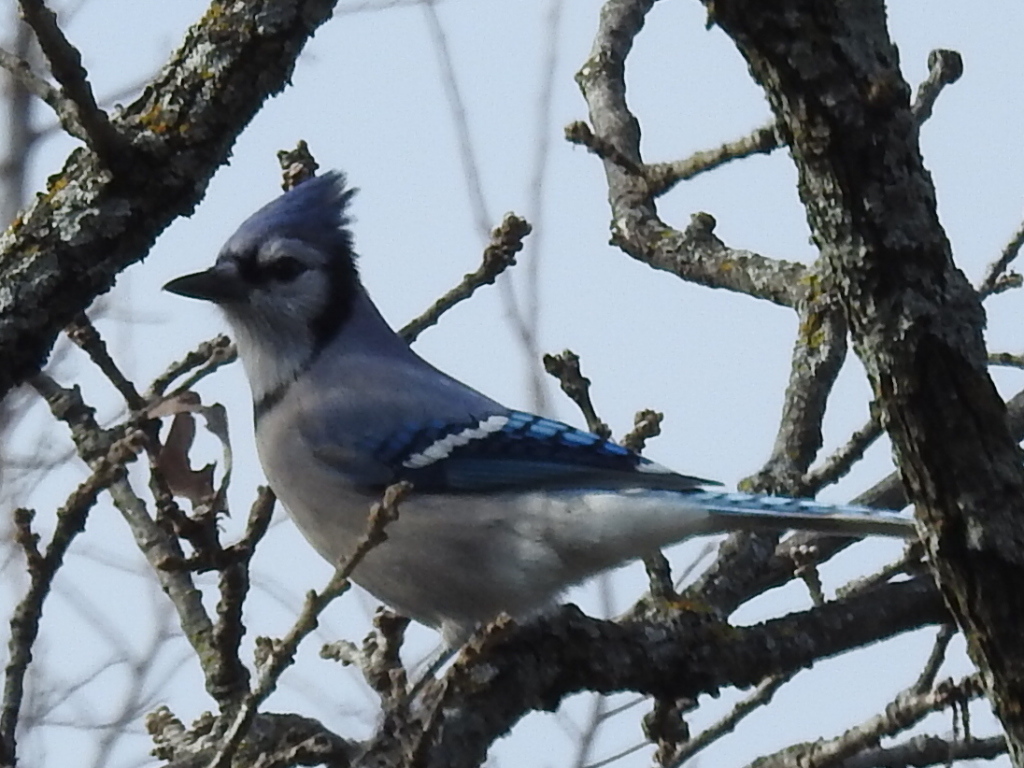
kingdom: Animalia
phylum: Chordata
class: Aves
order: Passeriformes
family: Corvidae
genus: Cyanocitta
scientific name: Cyanocitta cristata
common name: Blue jay
